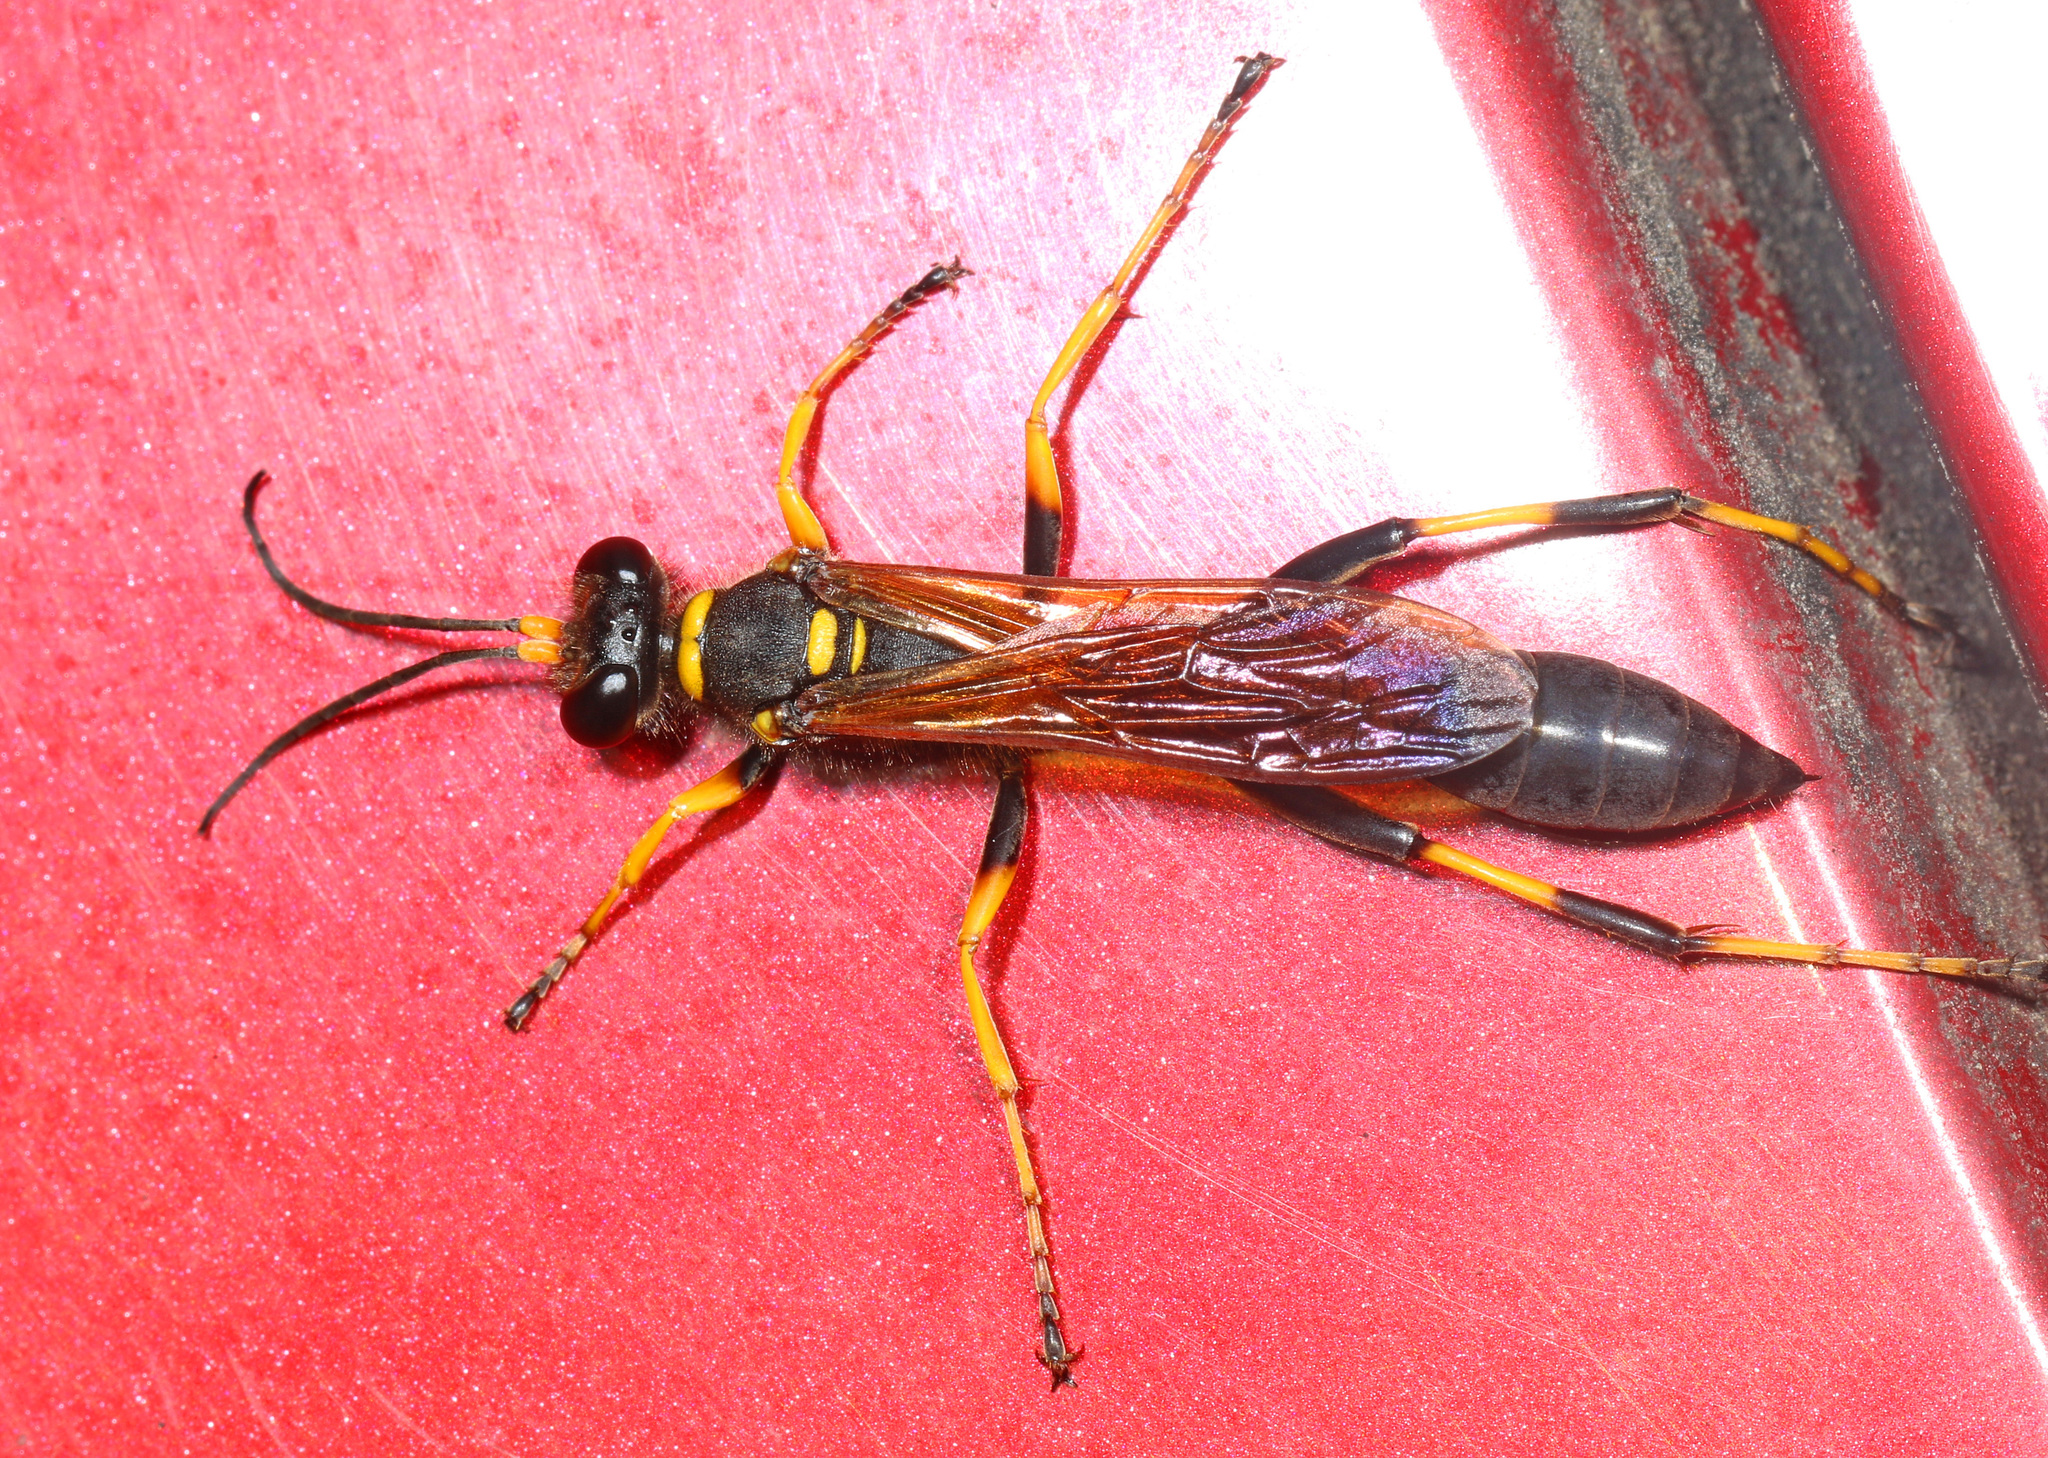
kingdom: Animalia
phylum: Arthropoda
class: Insecta
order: Hymenoptera
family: Sphecidae
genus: Sceliphron
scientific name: Sceliphron caementarium
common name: Mud dauber
